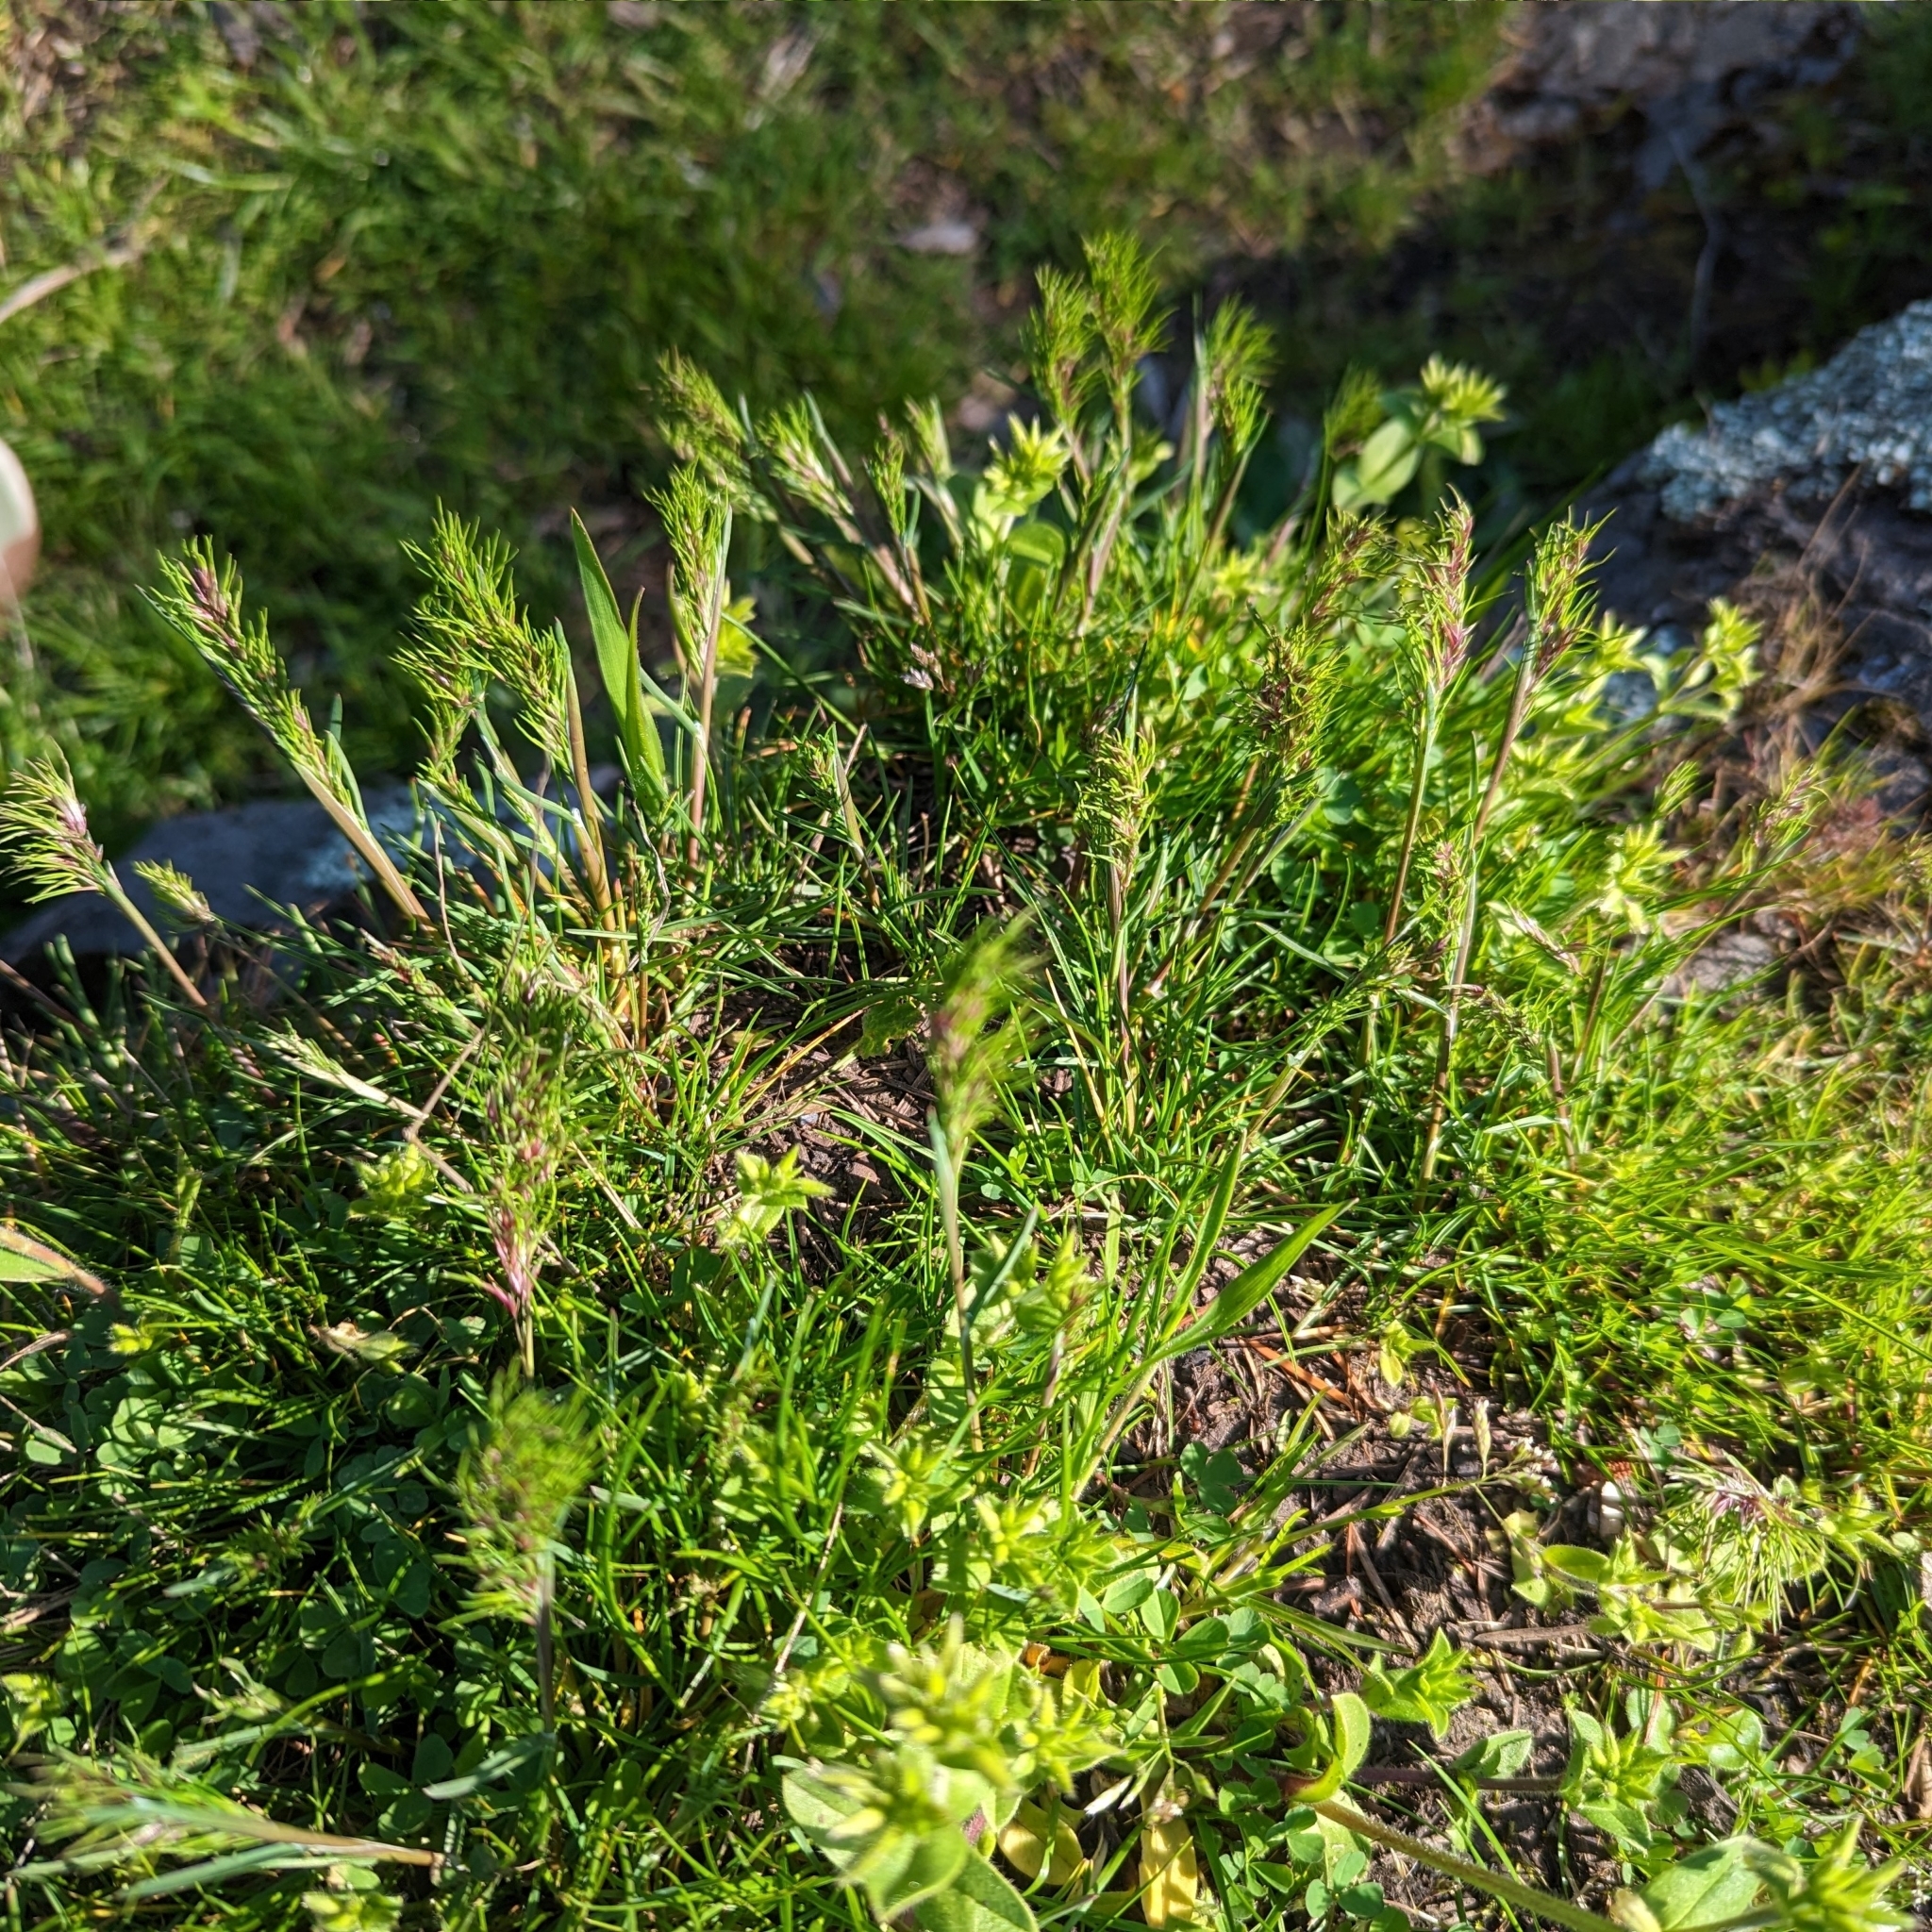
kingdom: Plantae
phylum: Tracheophyta
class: Liliopsida
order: Poales
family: Poaceae
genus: Poa
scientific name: Poa bulbosa
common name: Bulbous bluegrass
